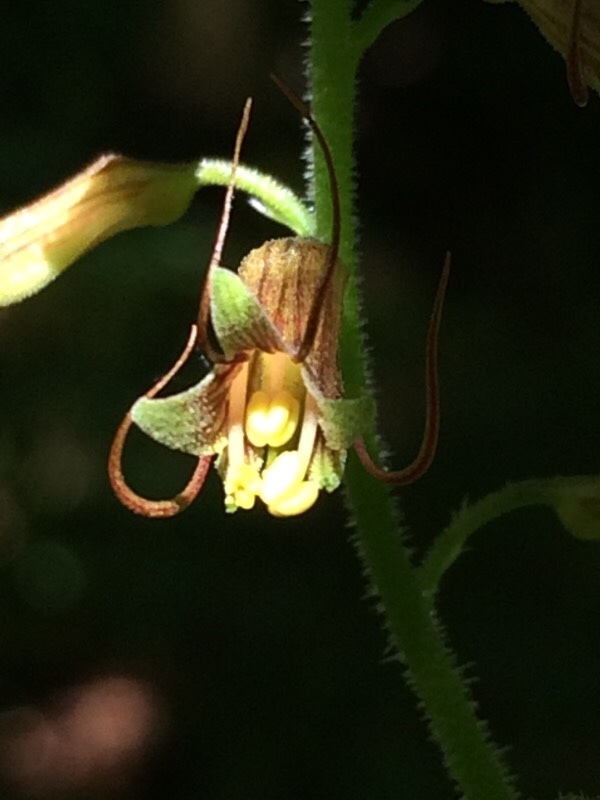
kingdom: Plantae
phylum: Tracheophyta
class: Magnoliopsida
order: Saxifragales
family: Saxifragaceae
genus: Tolmiea
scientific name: Tolmiea menziesii
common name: Pick-a-back-plant
